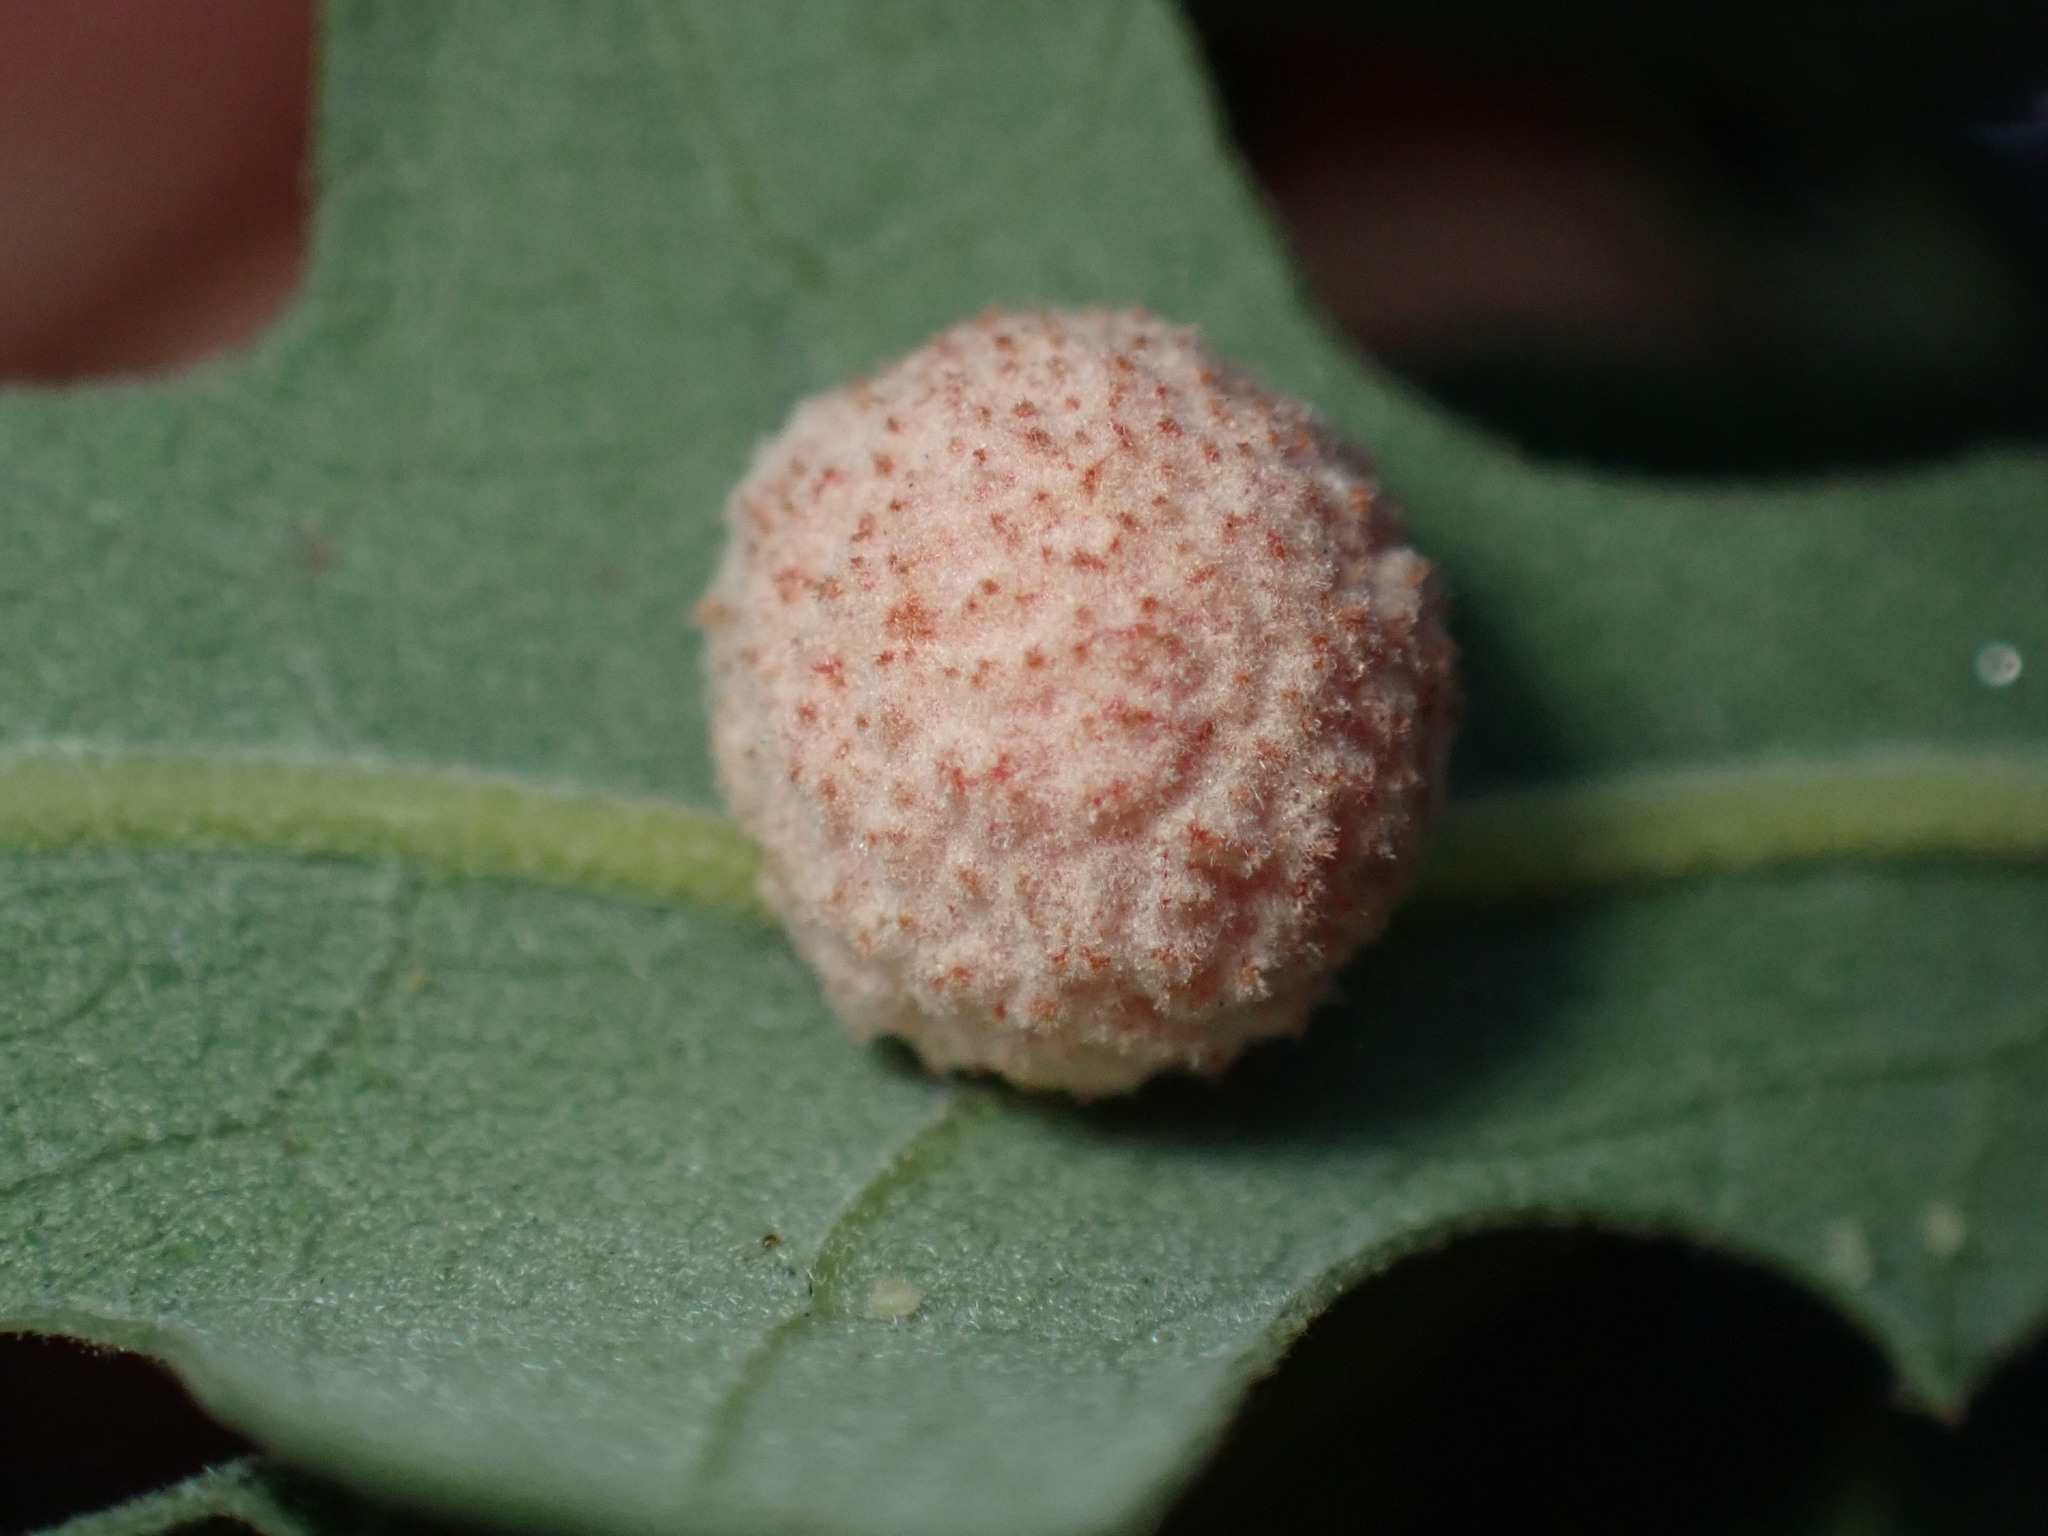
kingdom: Animalia
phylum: Arthropoda
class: Insecta
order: Hymenoptera
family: Cynipidae
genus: Cynips
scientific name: Cynips conspicua
